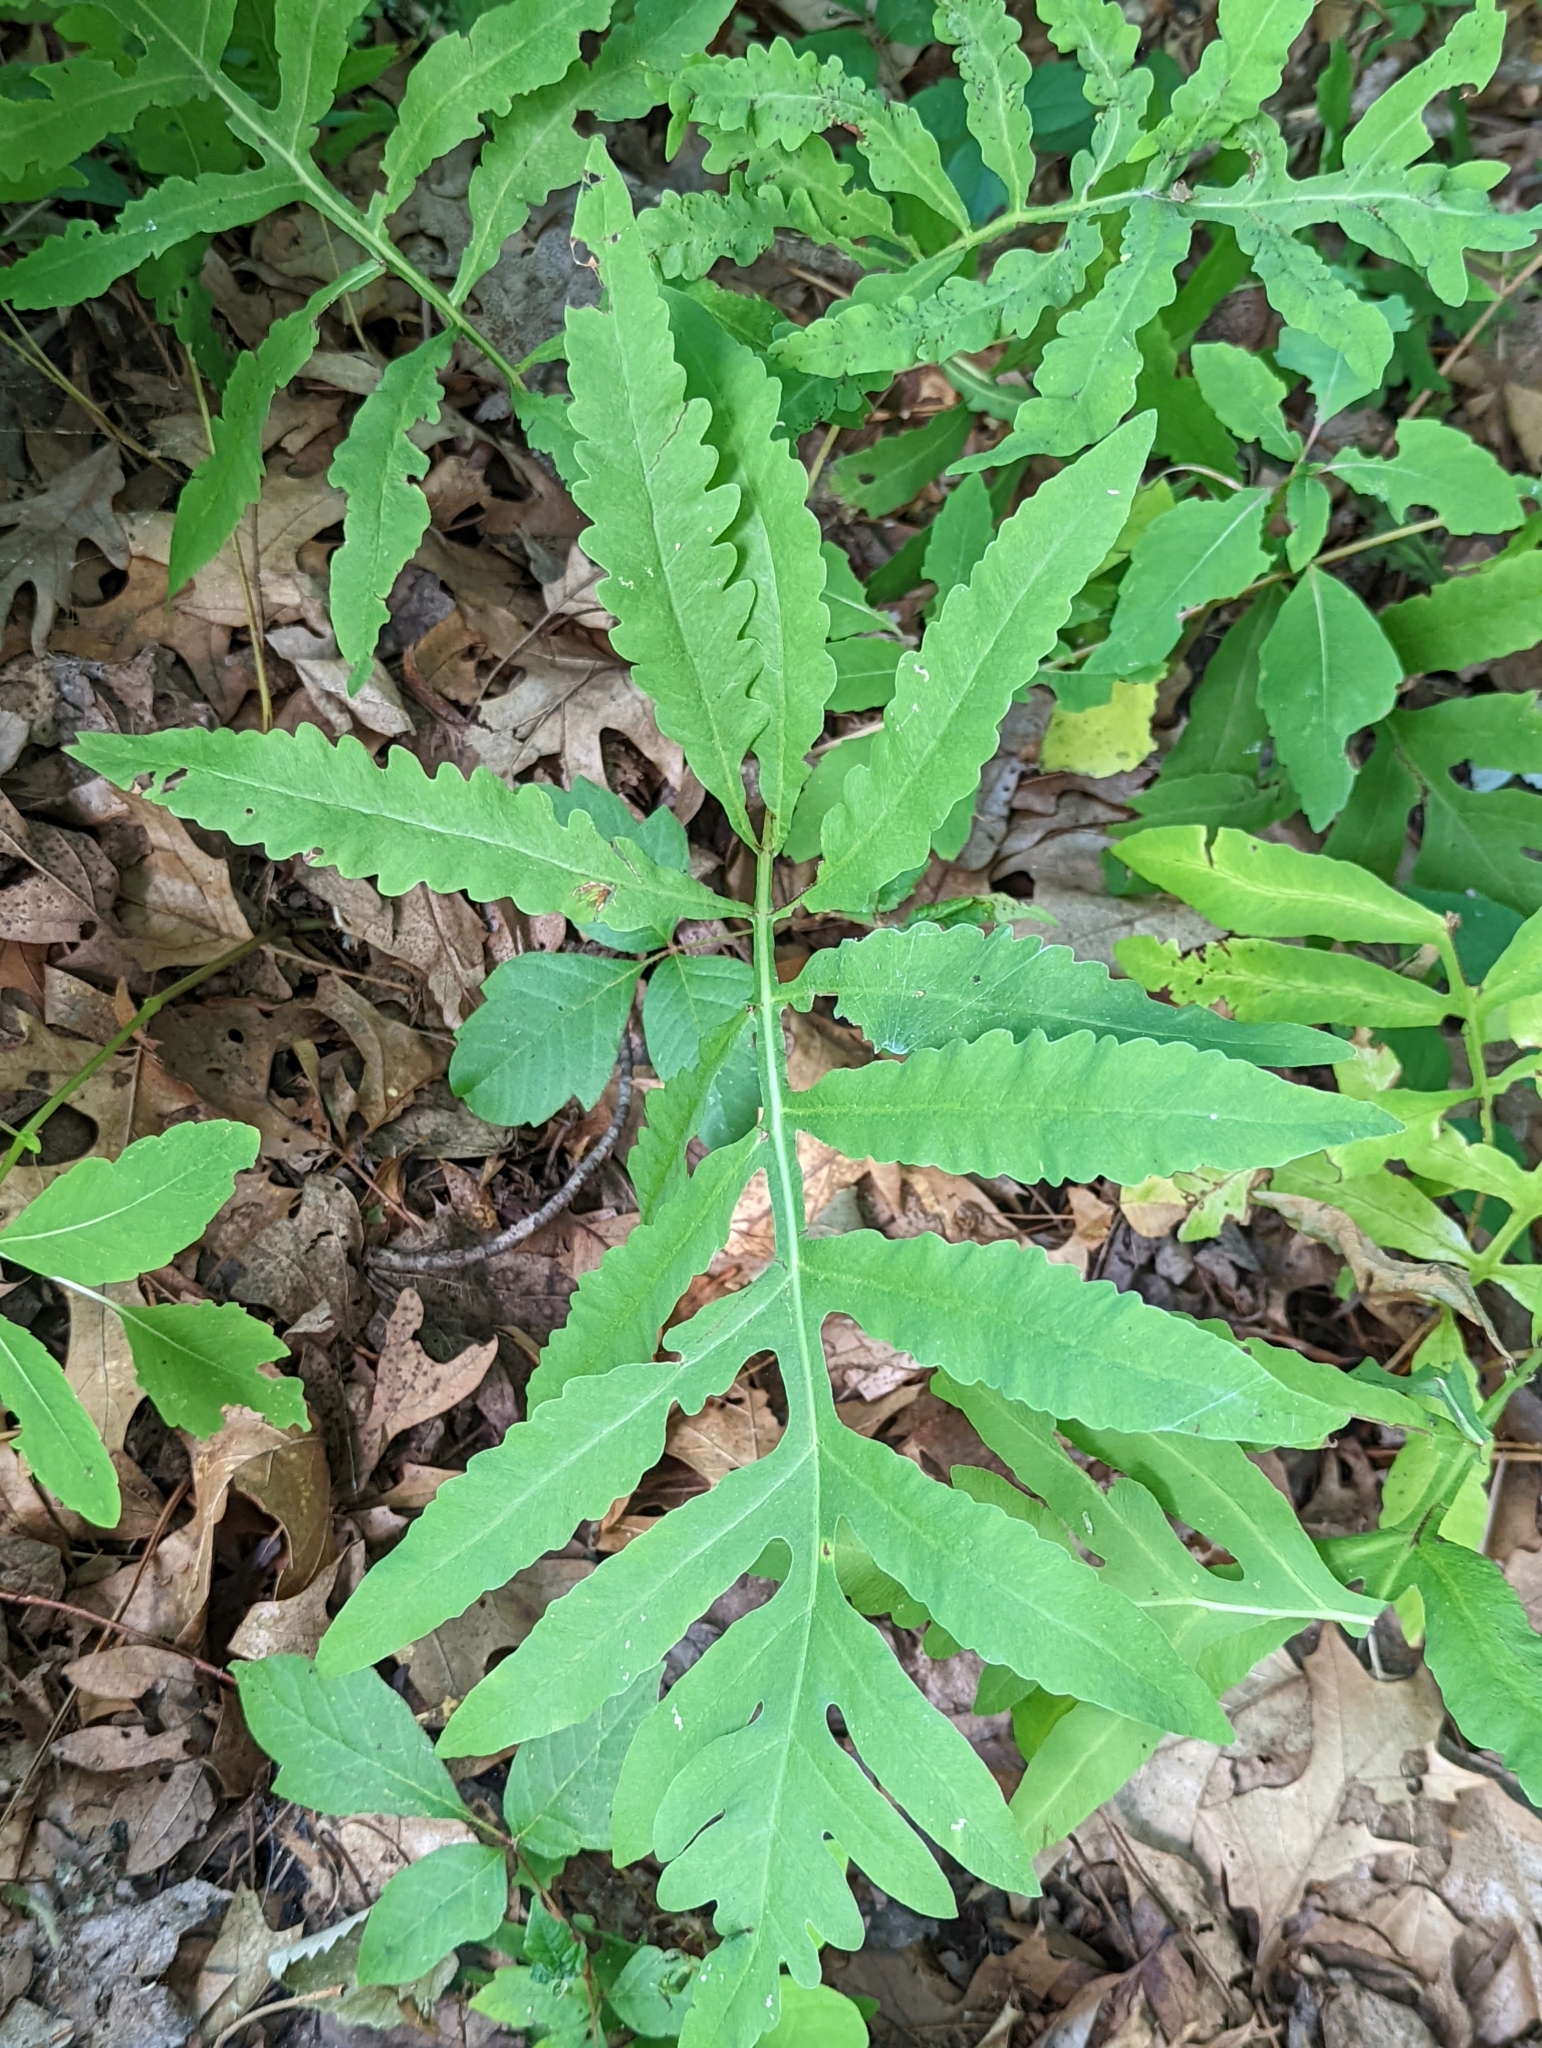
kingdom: Plantae
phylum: Tracheophyta
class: Polypodiopsida
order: Polypodiales
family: Onocleaceae
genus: Onoclea
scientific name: Onoclea sensibilis
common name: Sensitive fern
